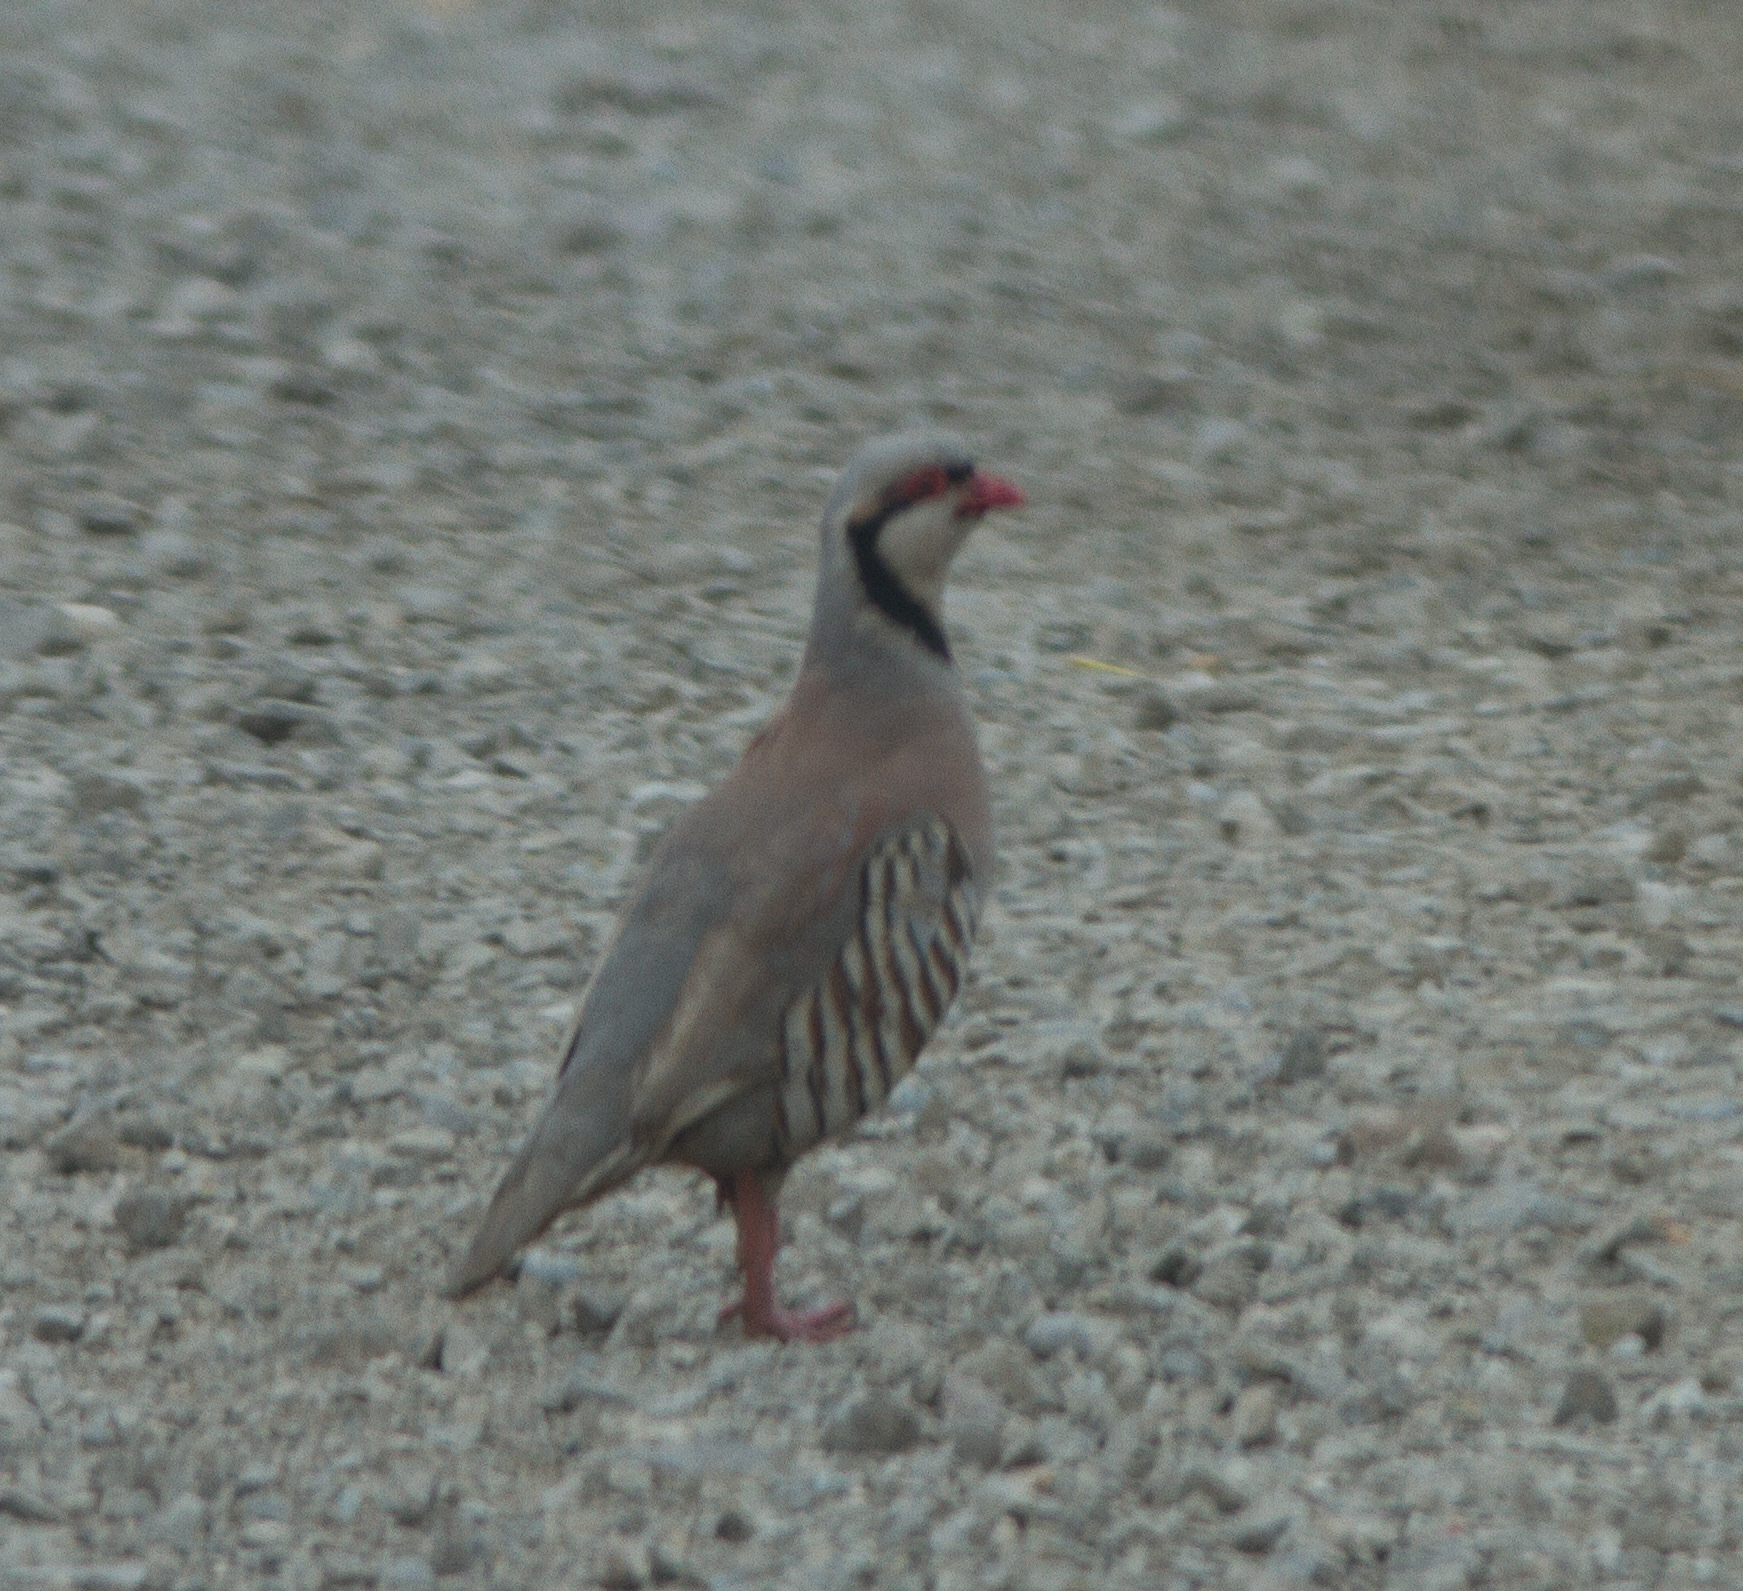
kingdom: Animalia
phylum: Chordata
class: Aves
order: Galliformes
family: Phasianidae
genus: Alectoris
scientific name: Alectoris chukar
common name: Chukar
